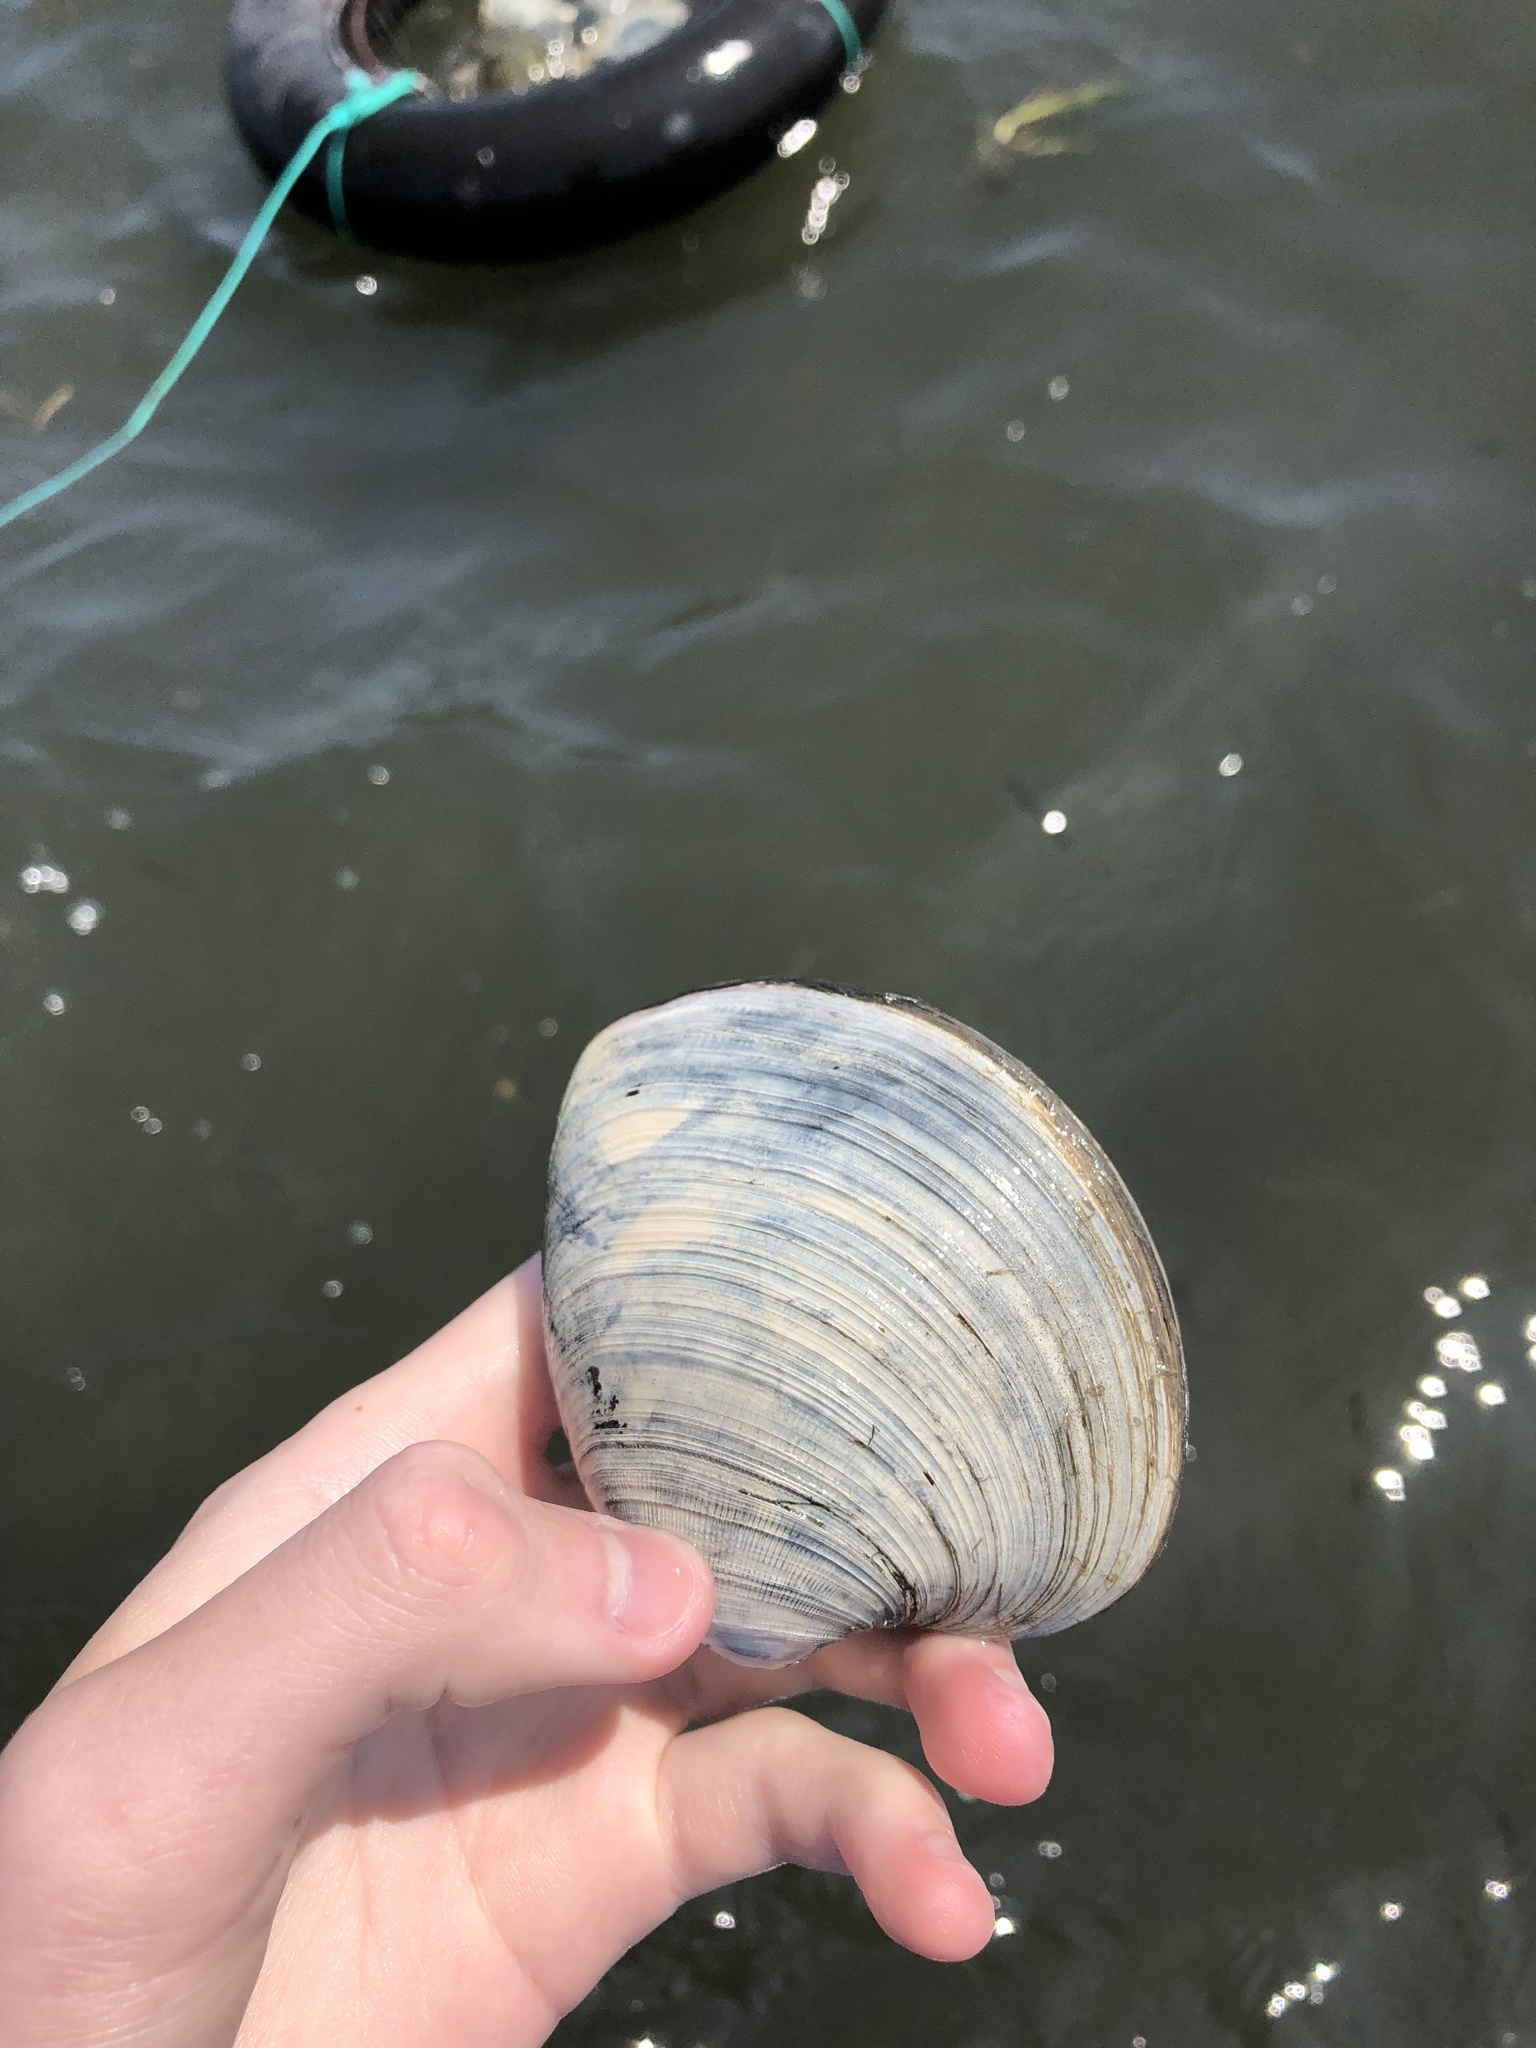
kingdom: Animalia
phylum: Mollusca
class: Bivalvia
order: Venerida
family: Veneridae
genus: Mercenaria
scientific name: Mercenaria mercenaria
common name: American hard-shelled clam
